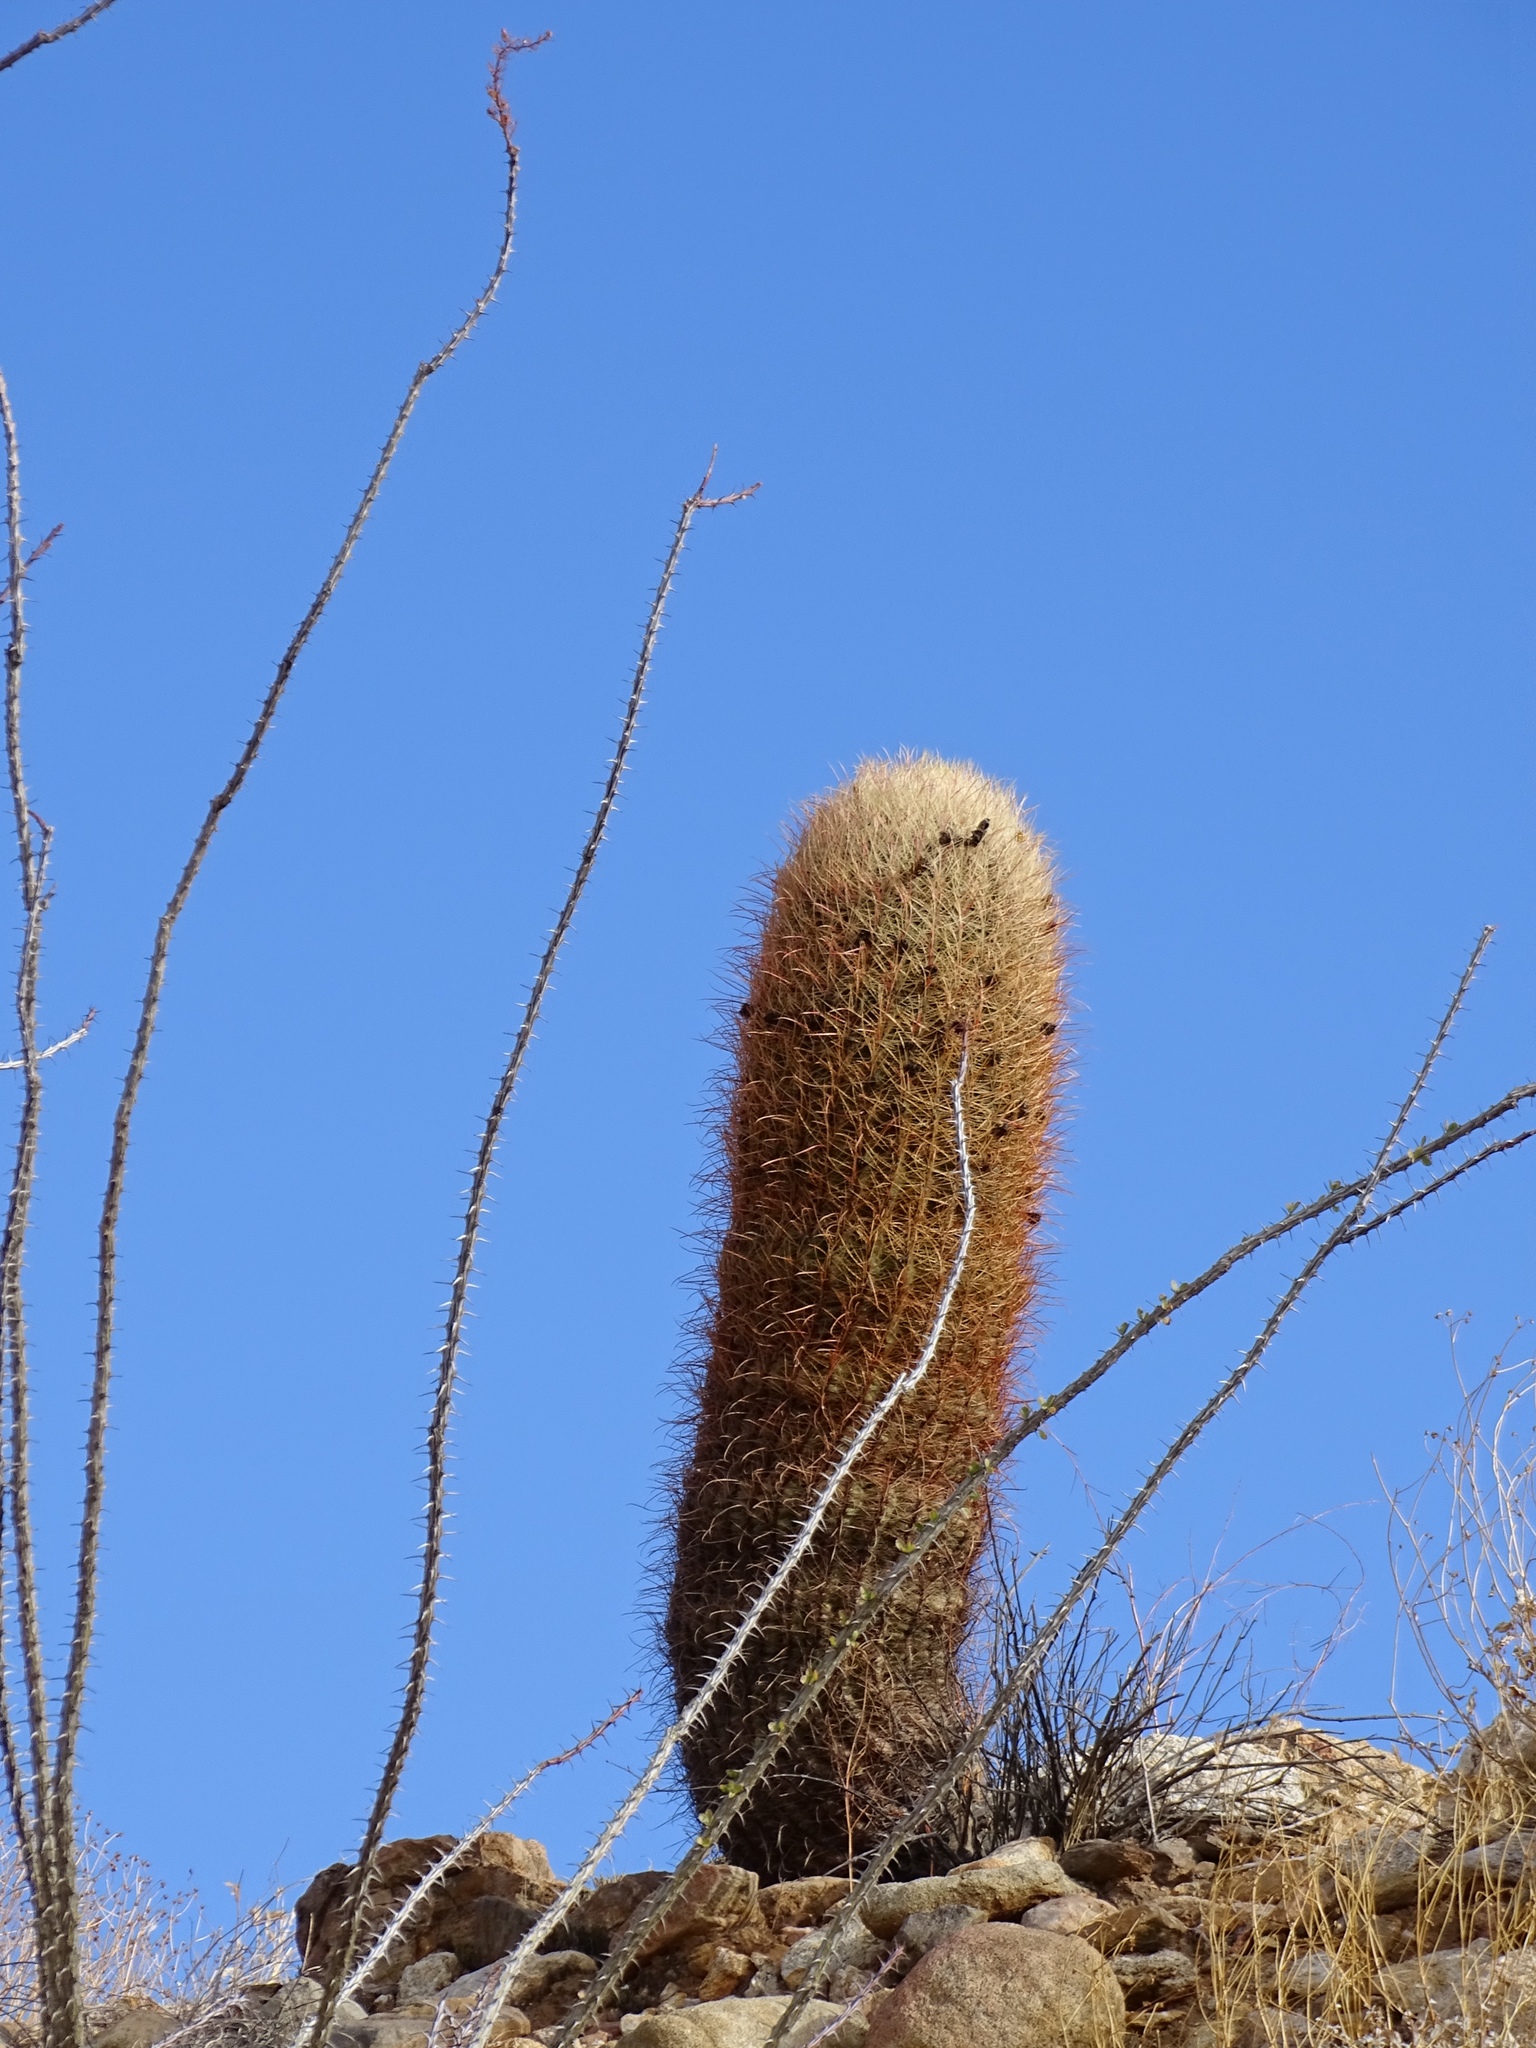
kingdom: Plantae
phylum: Tracheophyta
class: Magnoliopsida
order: Caryophyllales
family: Cactaceae
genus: Ferocactus
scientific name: Ferocactus cylindraceus
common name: California barrel cactus
